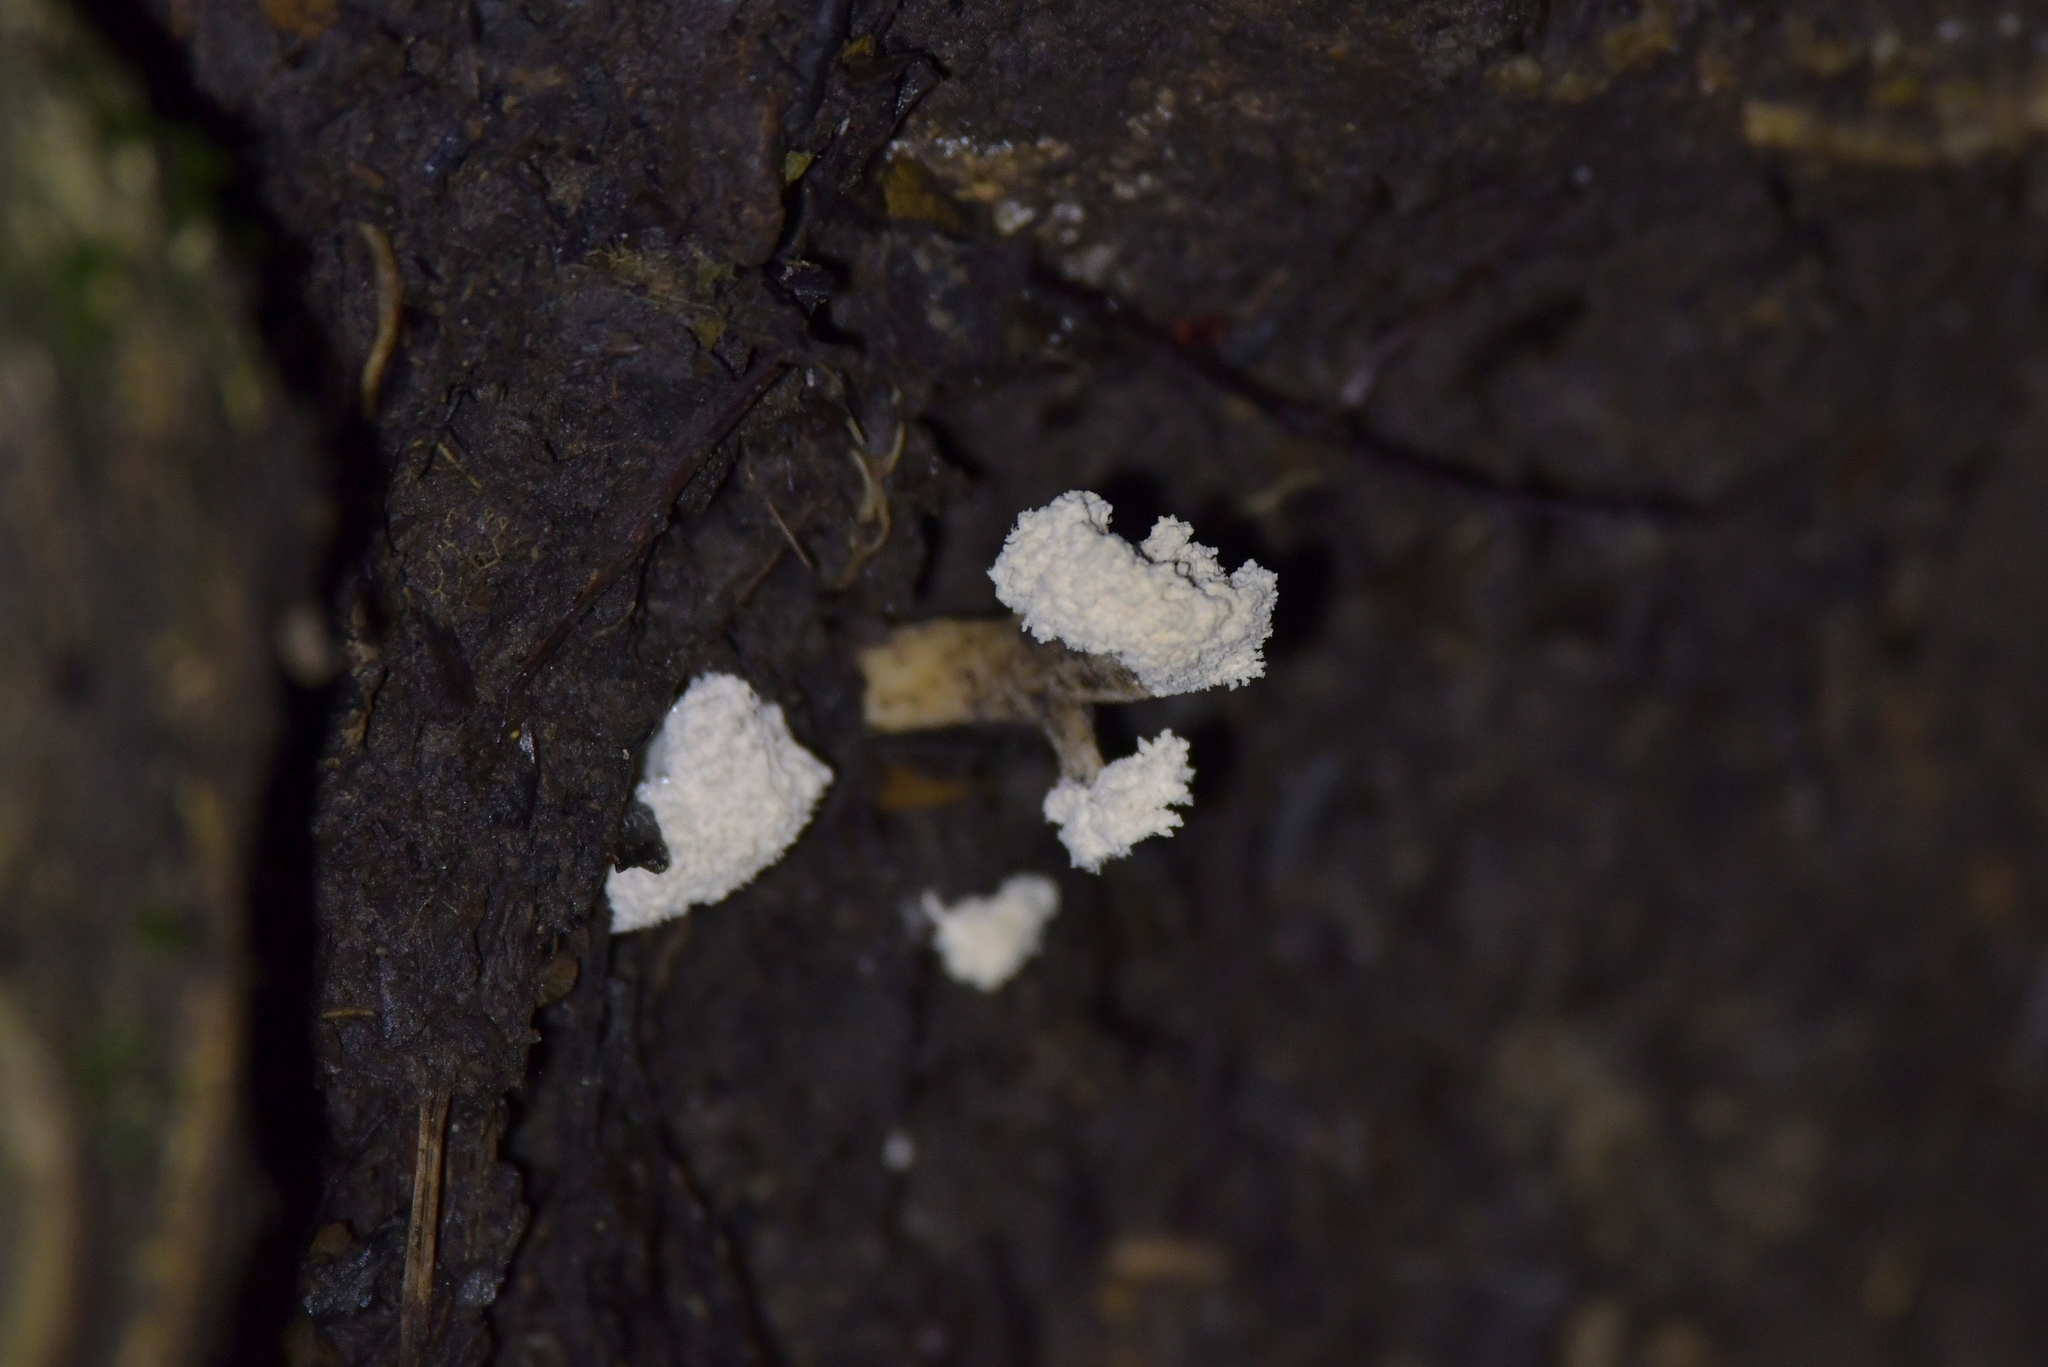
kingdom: Fungi
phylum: Ascomycota
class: Sordariomycetes
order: Hypocreales
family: Cordycipitaceae
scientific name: Cordycipitaceae
